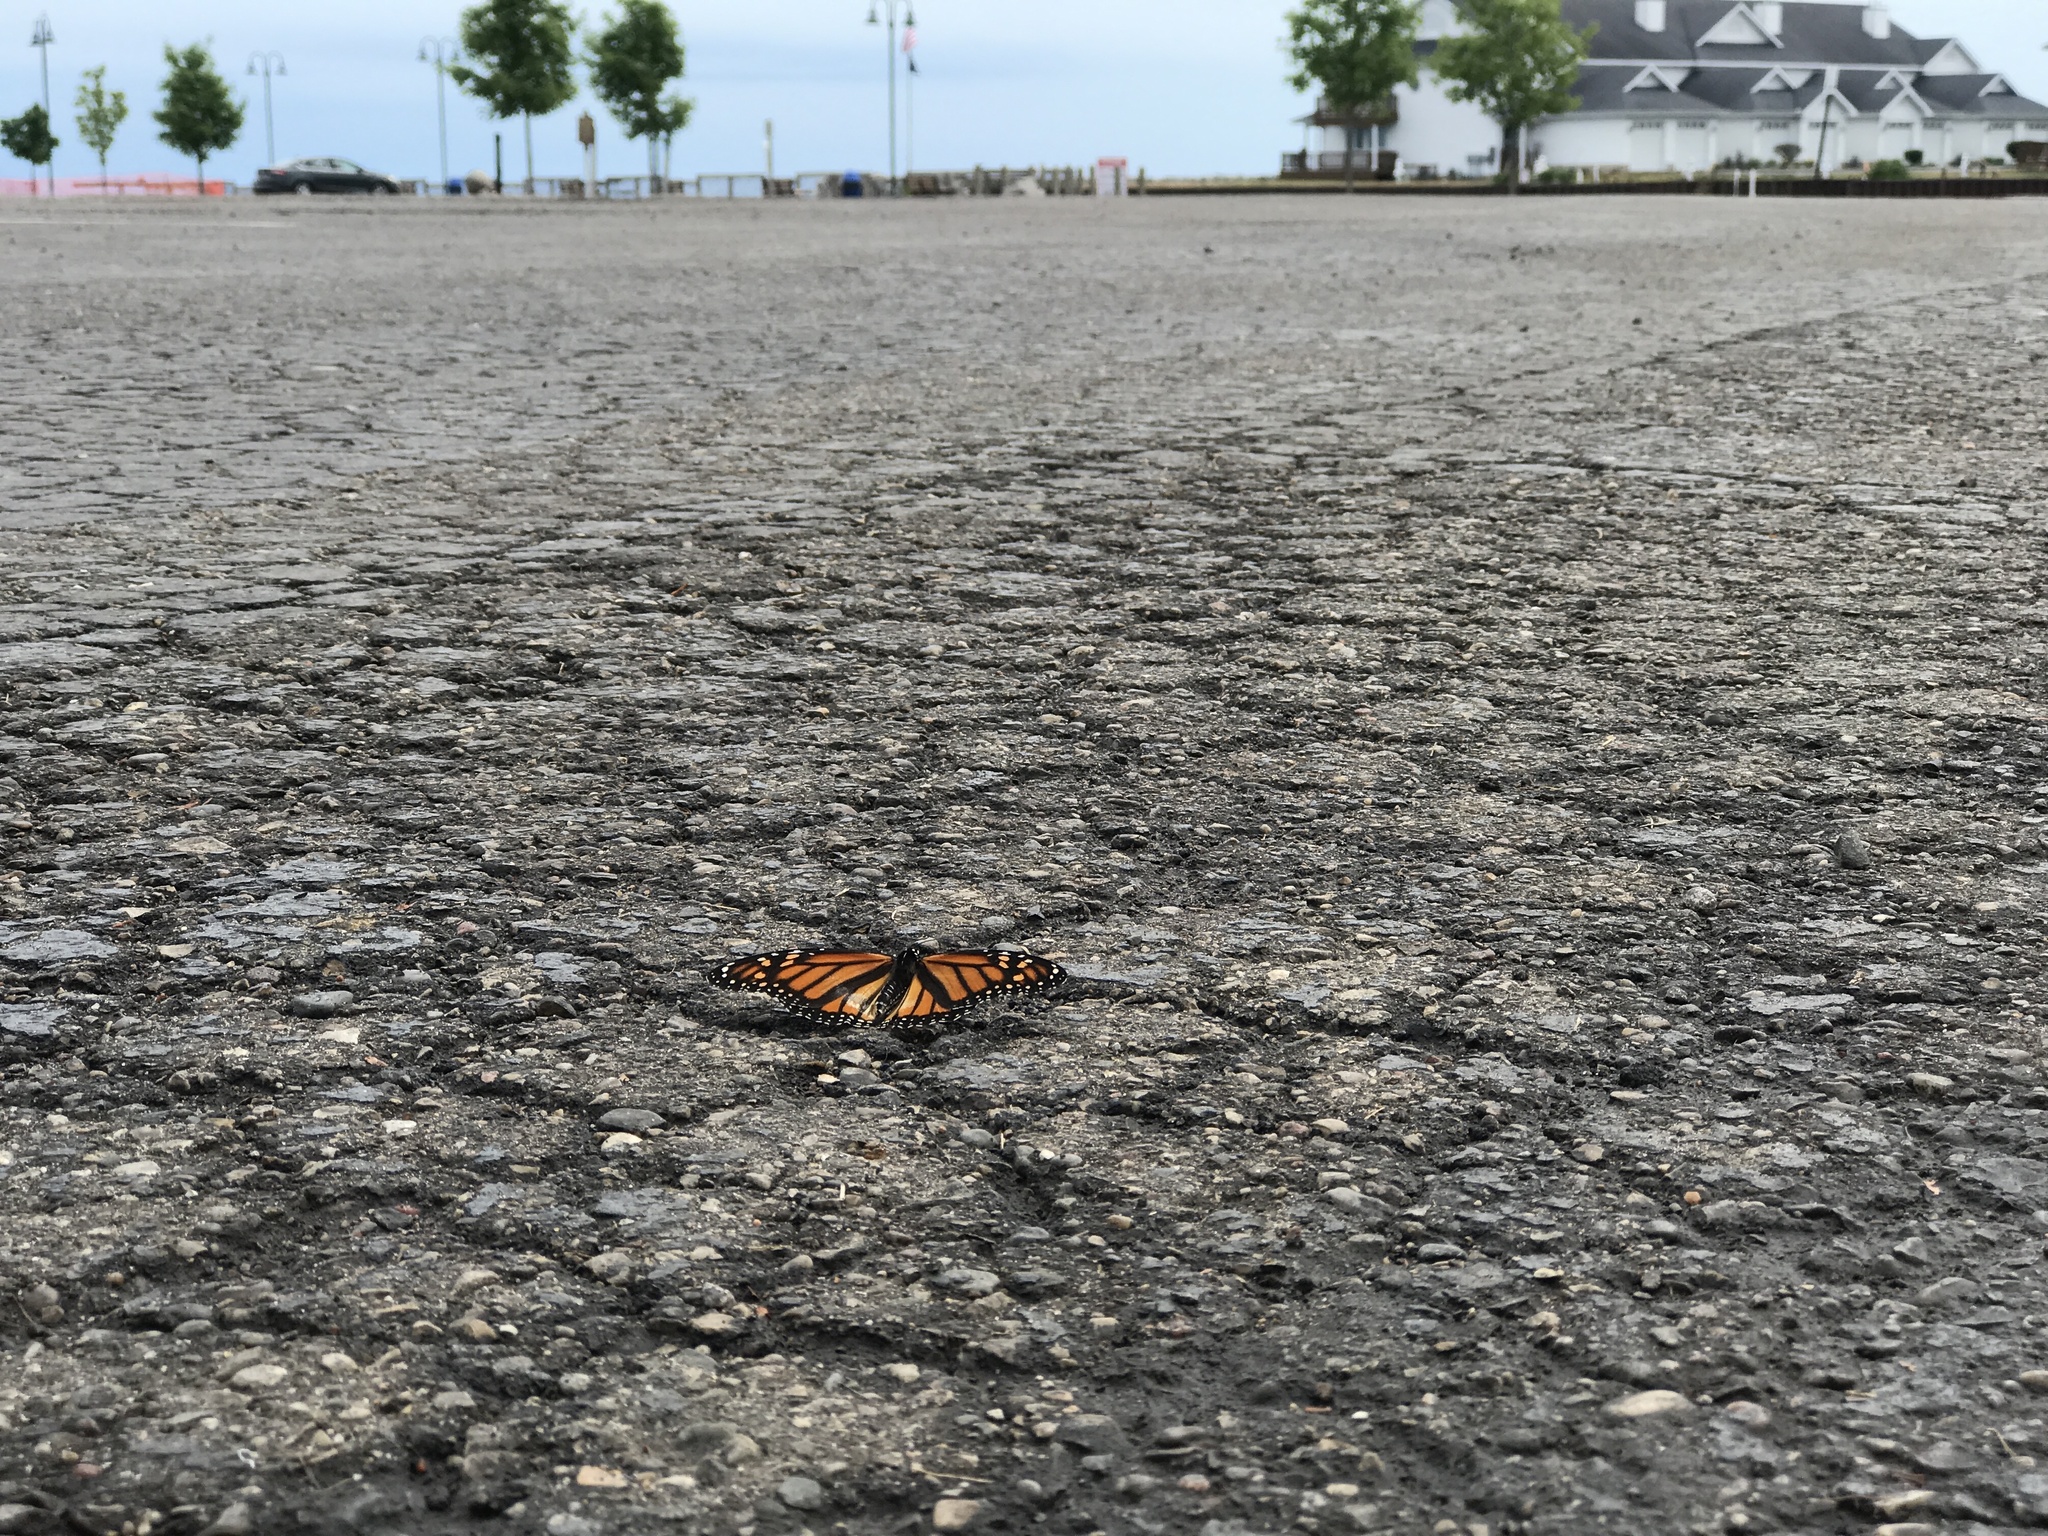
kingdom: Animalia
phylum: Arthropoda
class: Insecta
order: Lepidoptera
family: Nymphalidae
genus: Danaus
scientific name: Danaus plexippus
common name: Monarch
